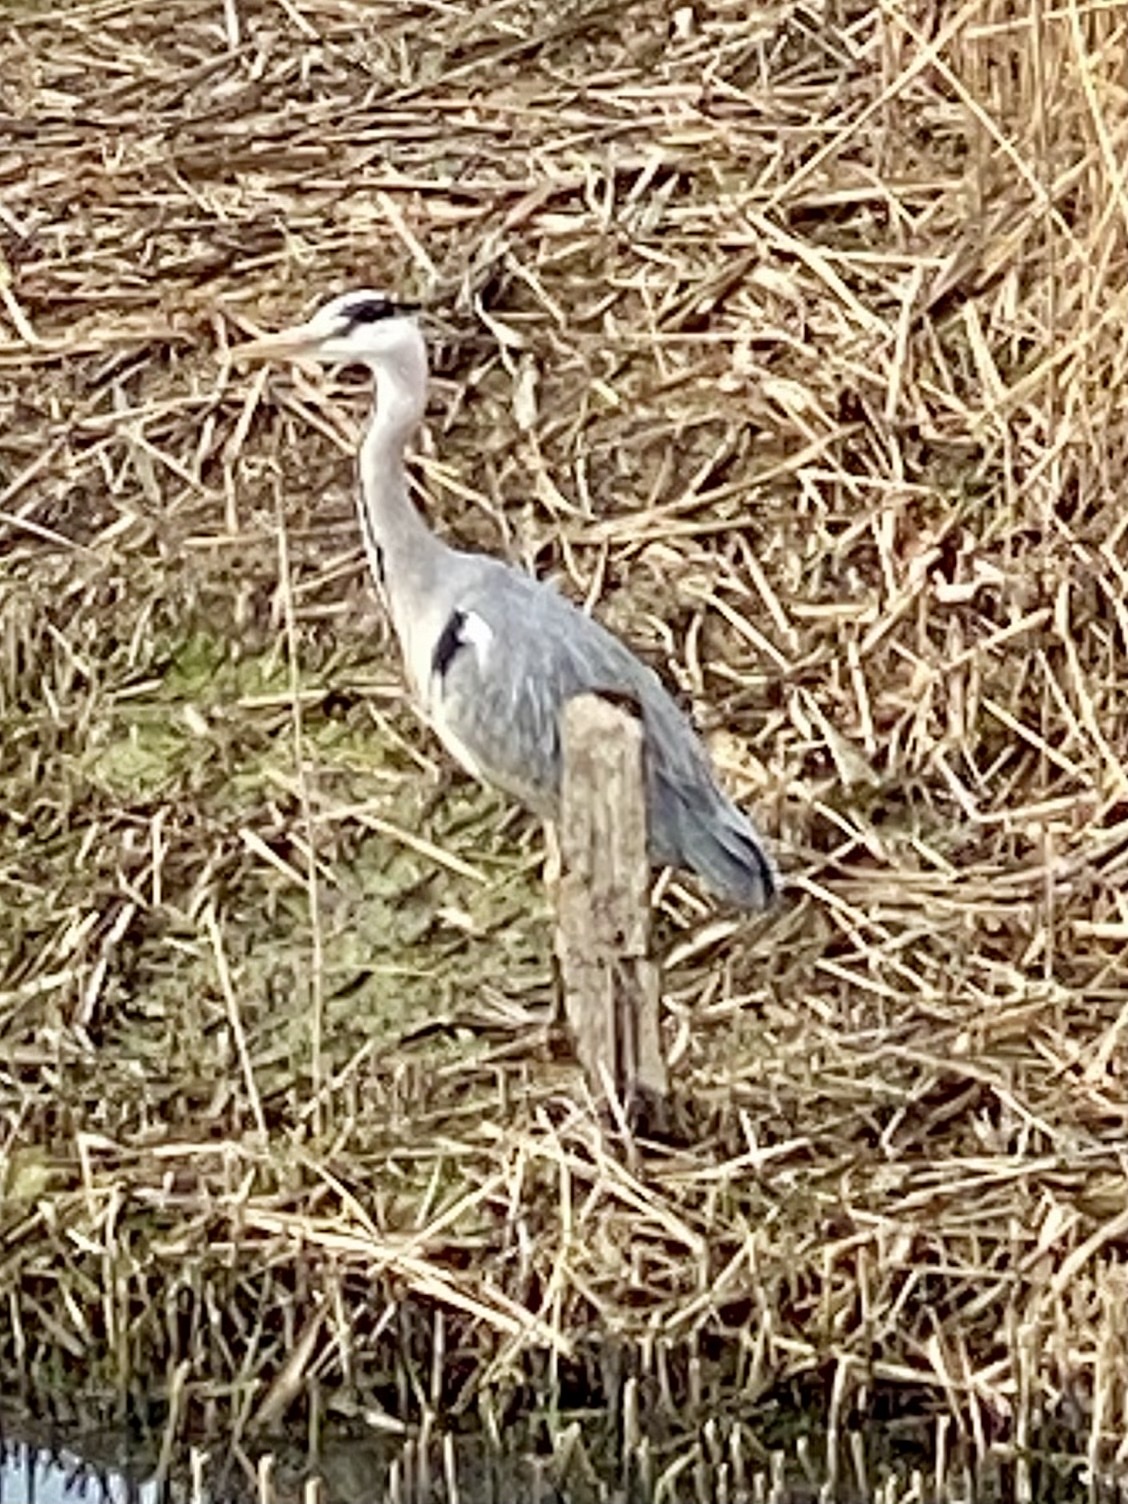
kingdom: Animalia
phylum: Chordata
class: Aves
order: Pelecaniformes
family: Ardeidae
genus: Ardea
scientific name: Ardea cinerea
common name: Grey heron
